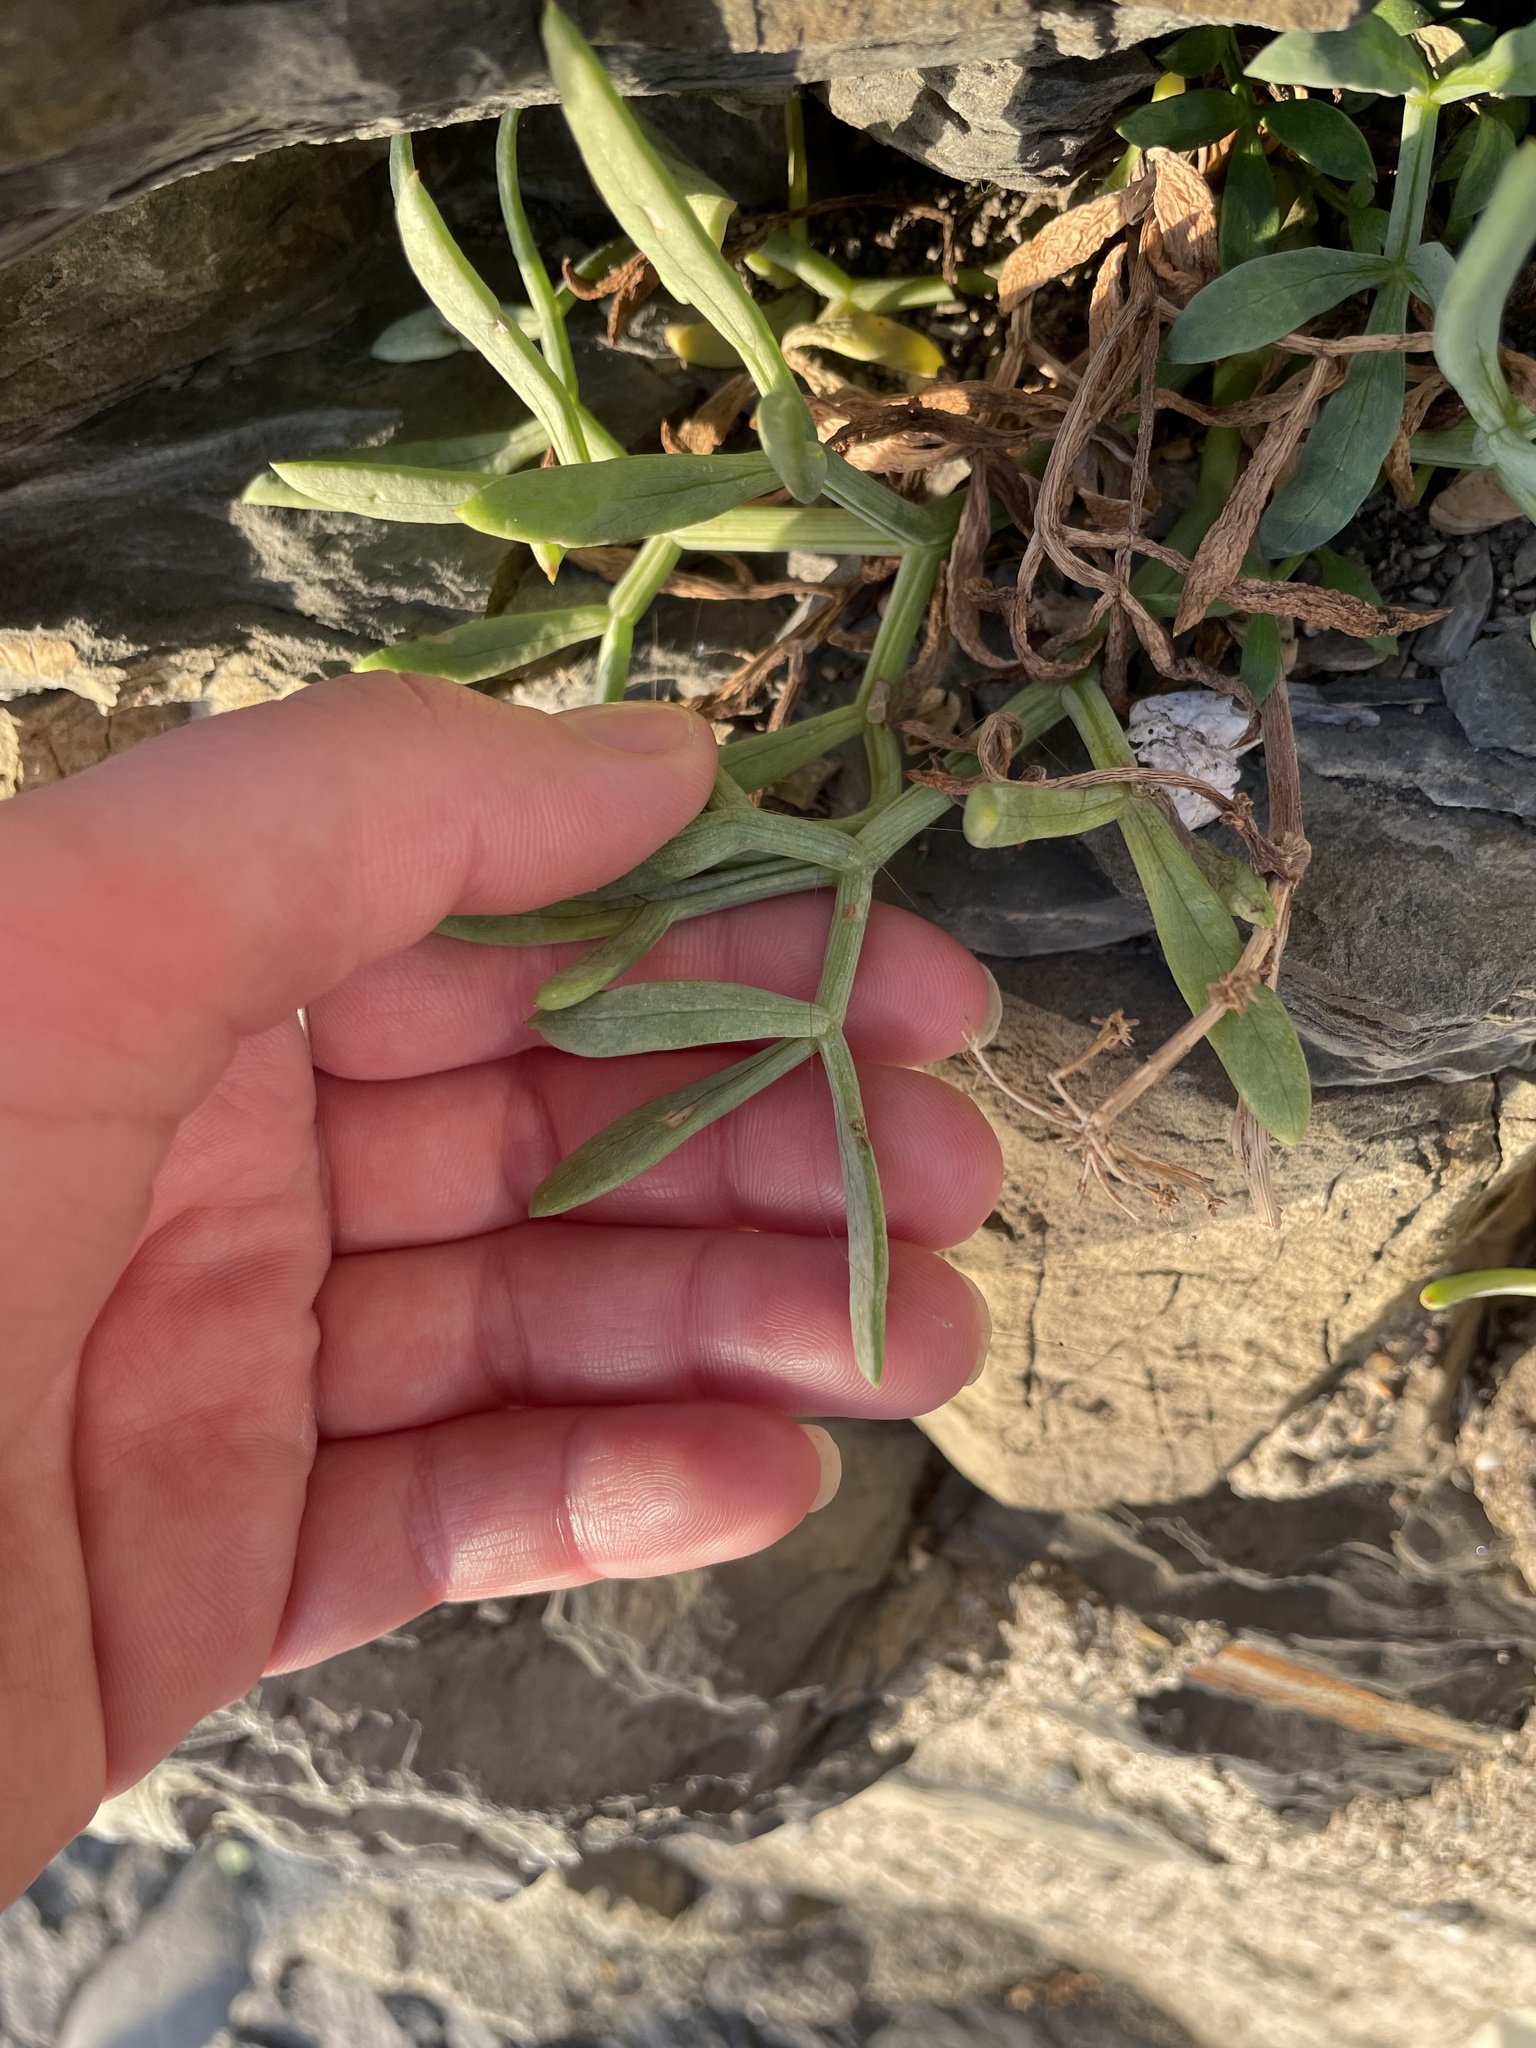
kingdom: Plantae
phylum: Tracheophyta
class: Magnoliopsida
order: Apiales
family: Apiaceae
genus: Crithmum
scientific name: Crithmum maritimum
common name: Rock samphire
